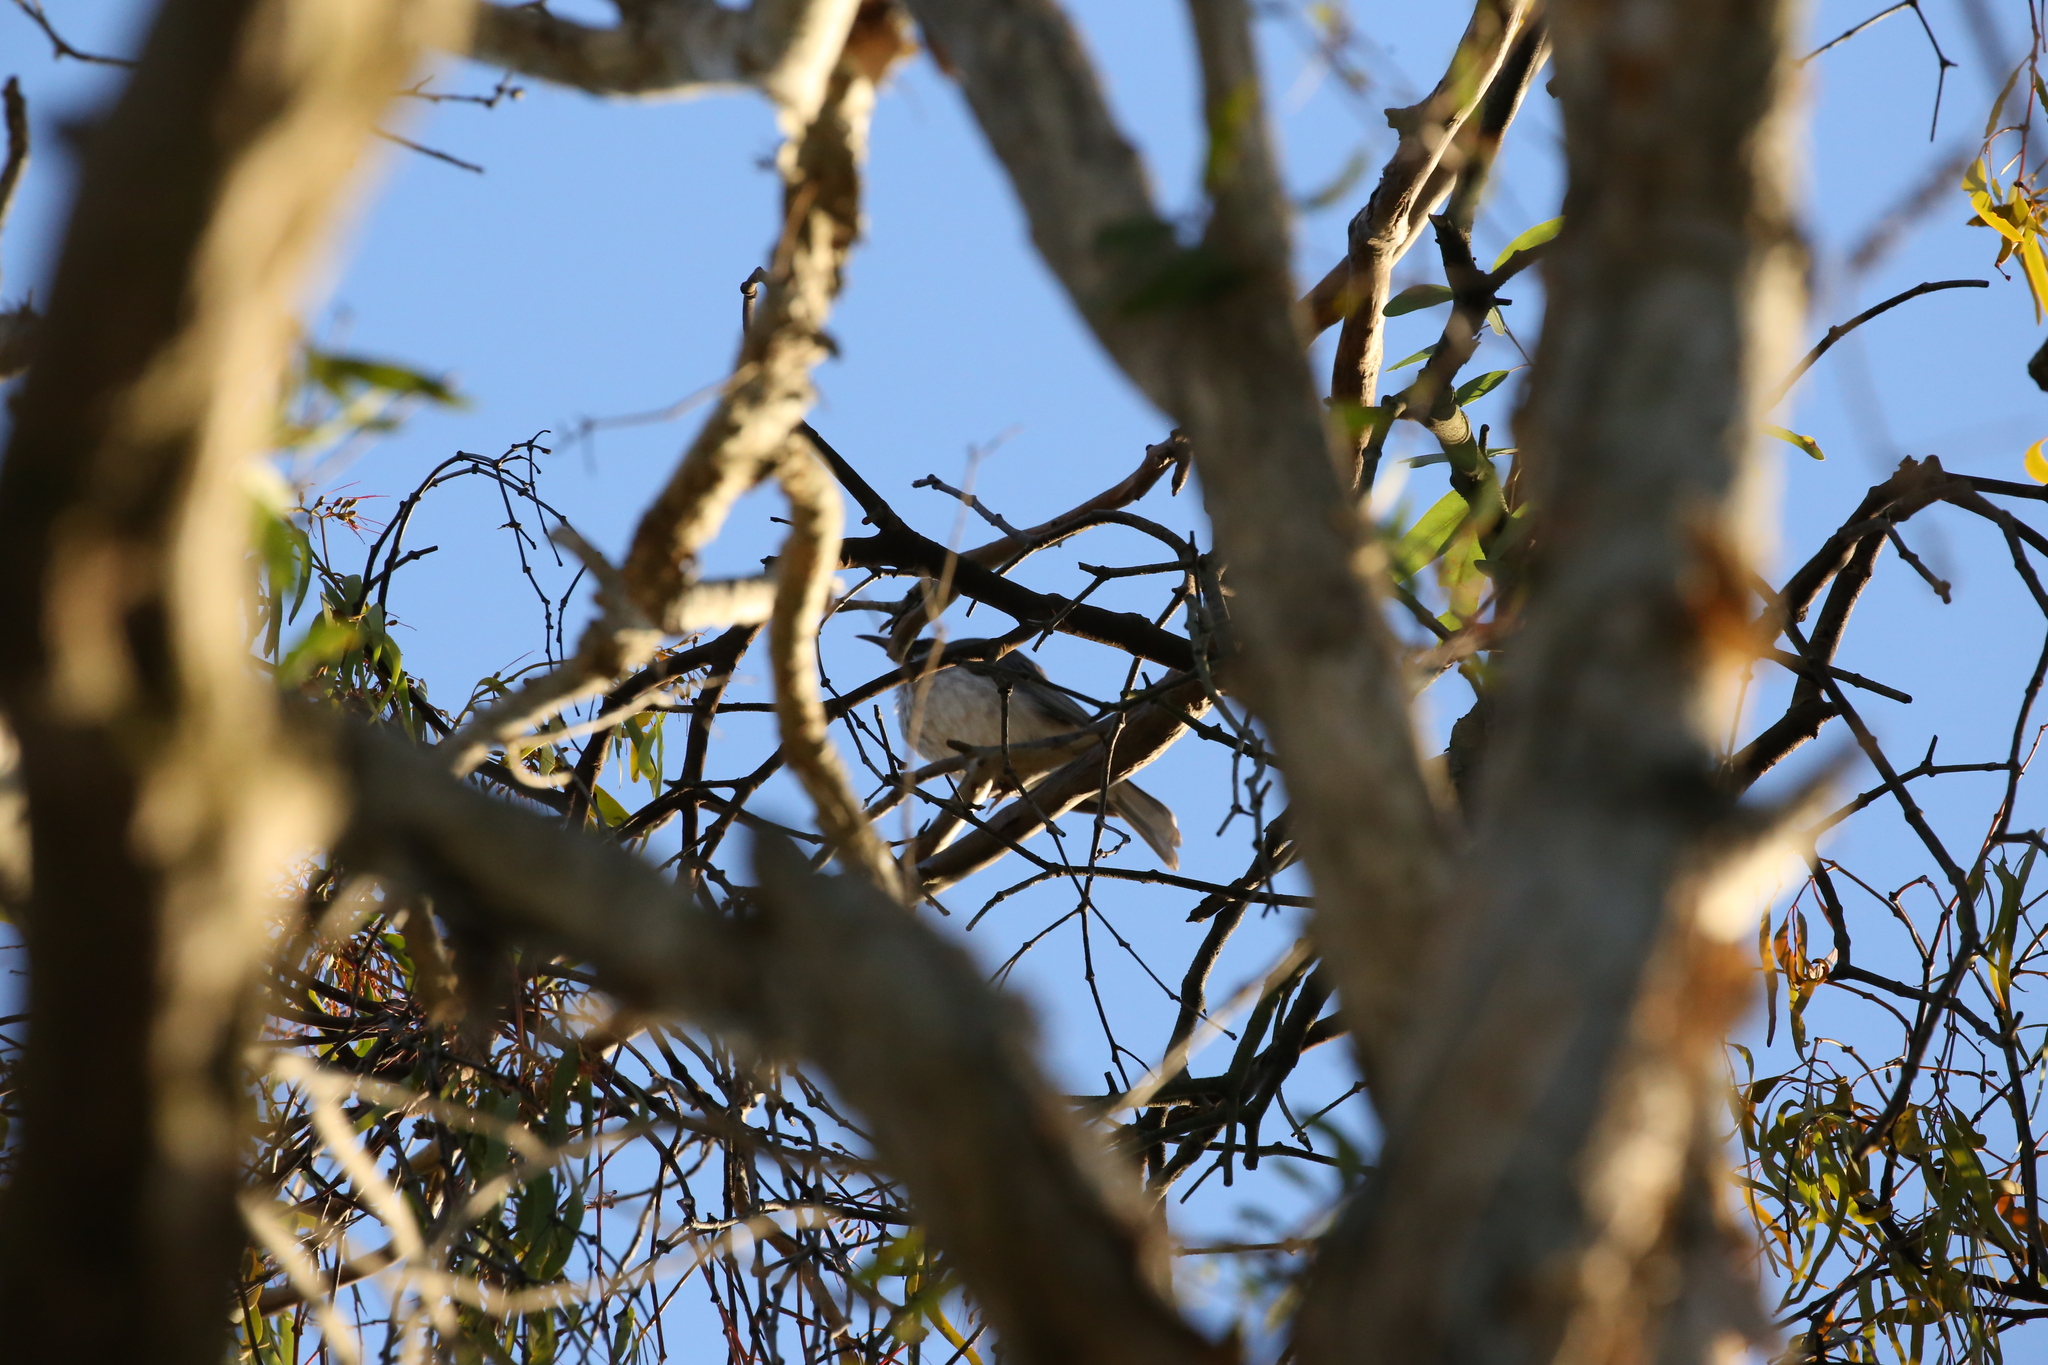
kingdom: Animalia
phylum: Chordata
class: Aves
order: Passeriformes
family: Meliphagidae
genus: Philemon
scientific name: Philemon corniculatus
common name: Noisy friarbird
